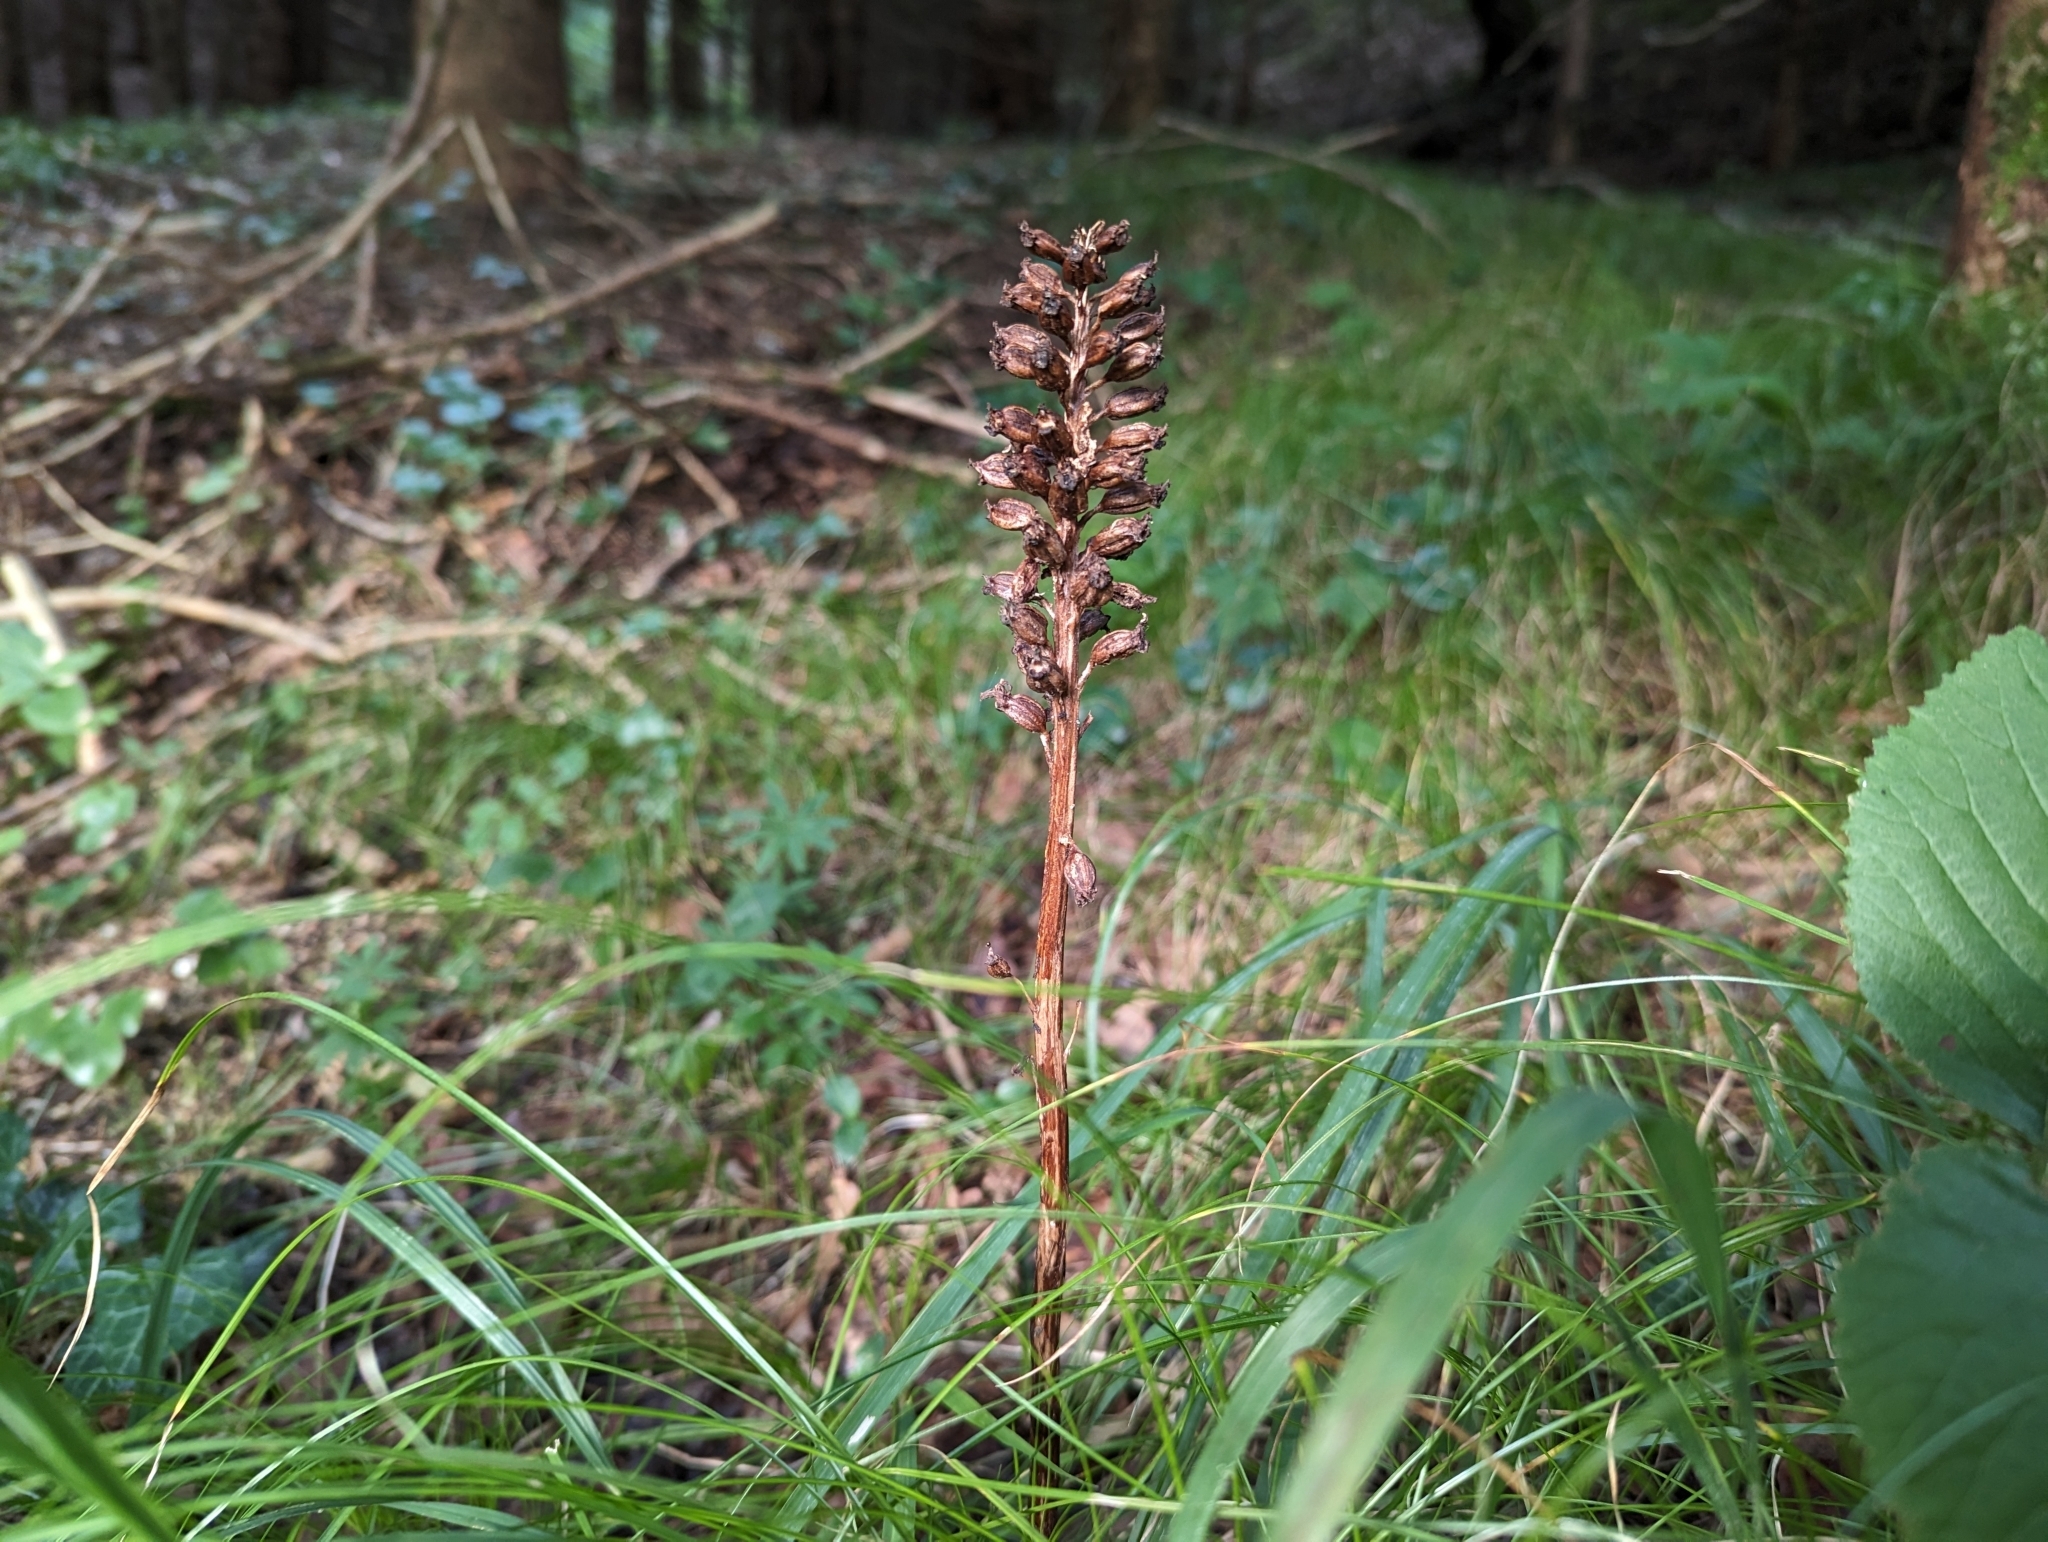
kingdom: Plantae
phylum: Tracheophyta
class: Liliopsida
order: Asparagales
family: Orchidaceae
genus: Neottia
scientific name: Neottia nidus-avis
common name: Bird's-nest orchid
